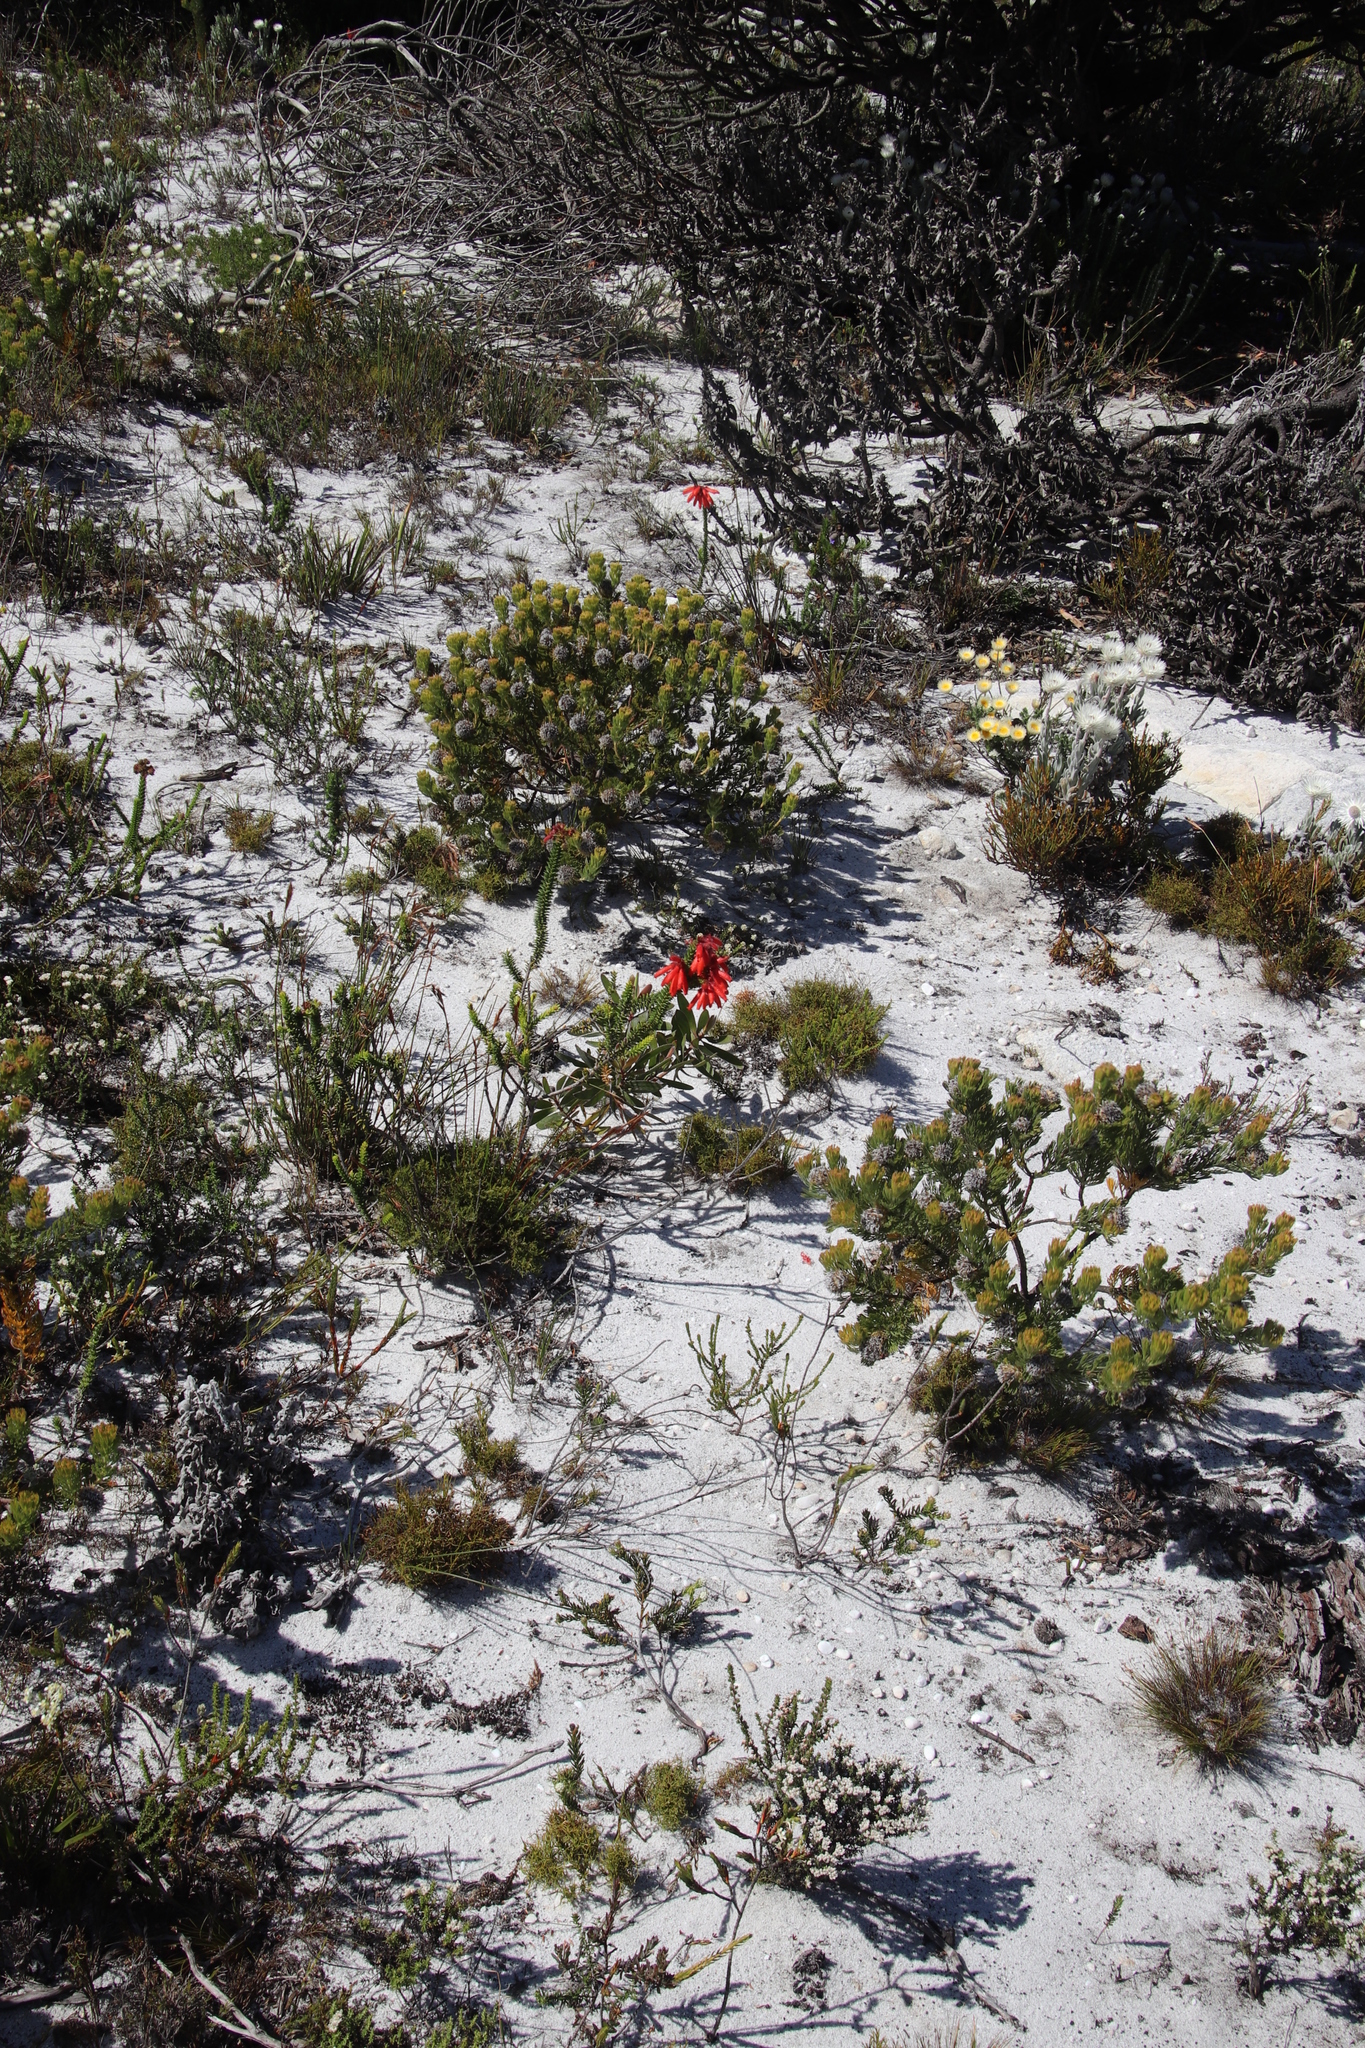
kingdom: Plantae
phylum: Tracheophyta
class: Magnoliopsida
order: Ericales
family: Ericaceae
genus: Erica
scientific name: Erica cerinthoides
